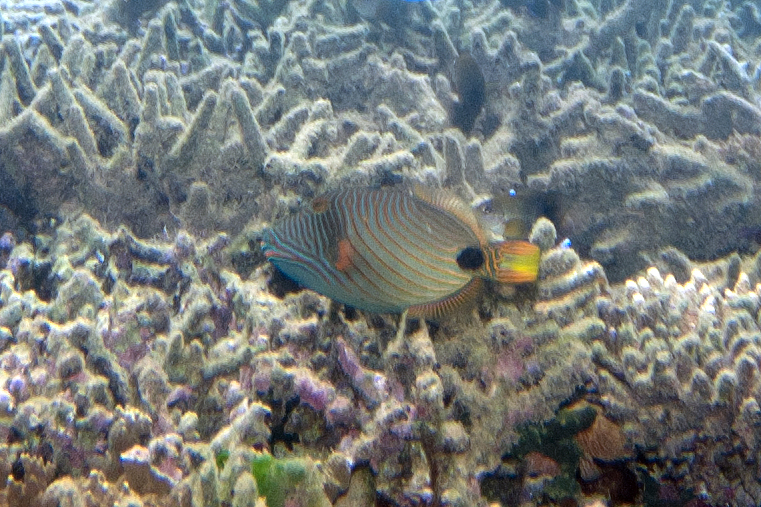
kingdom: Animalia
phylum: Chordata
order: Tetraodontiformes
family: Balistidae
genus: Balistapus
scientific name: Balistapus undulatus
